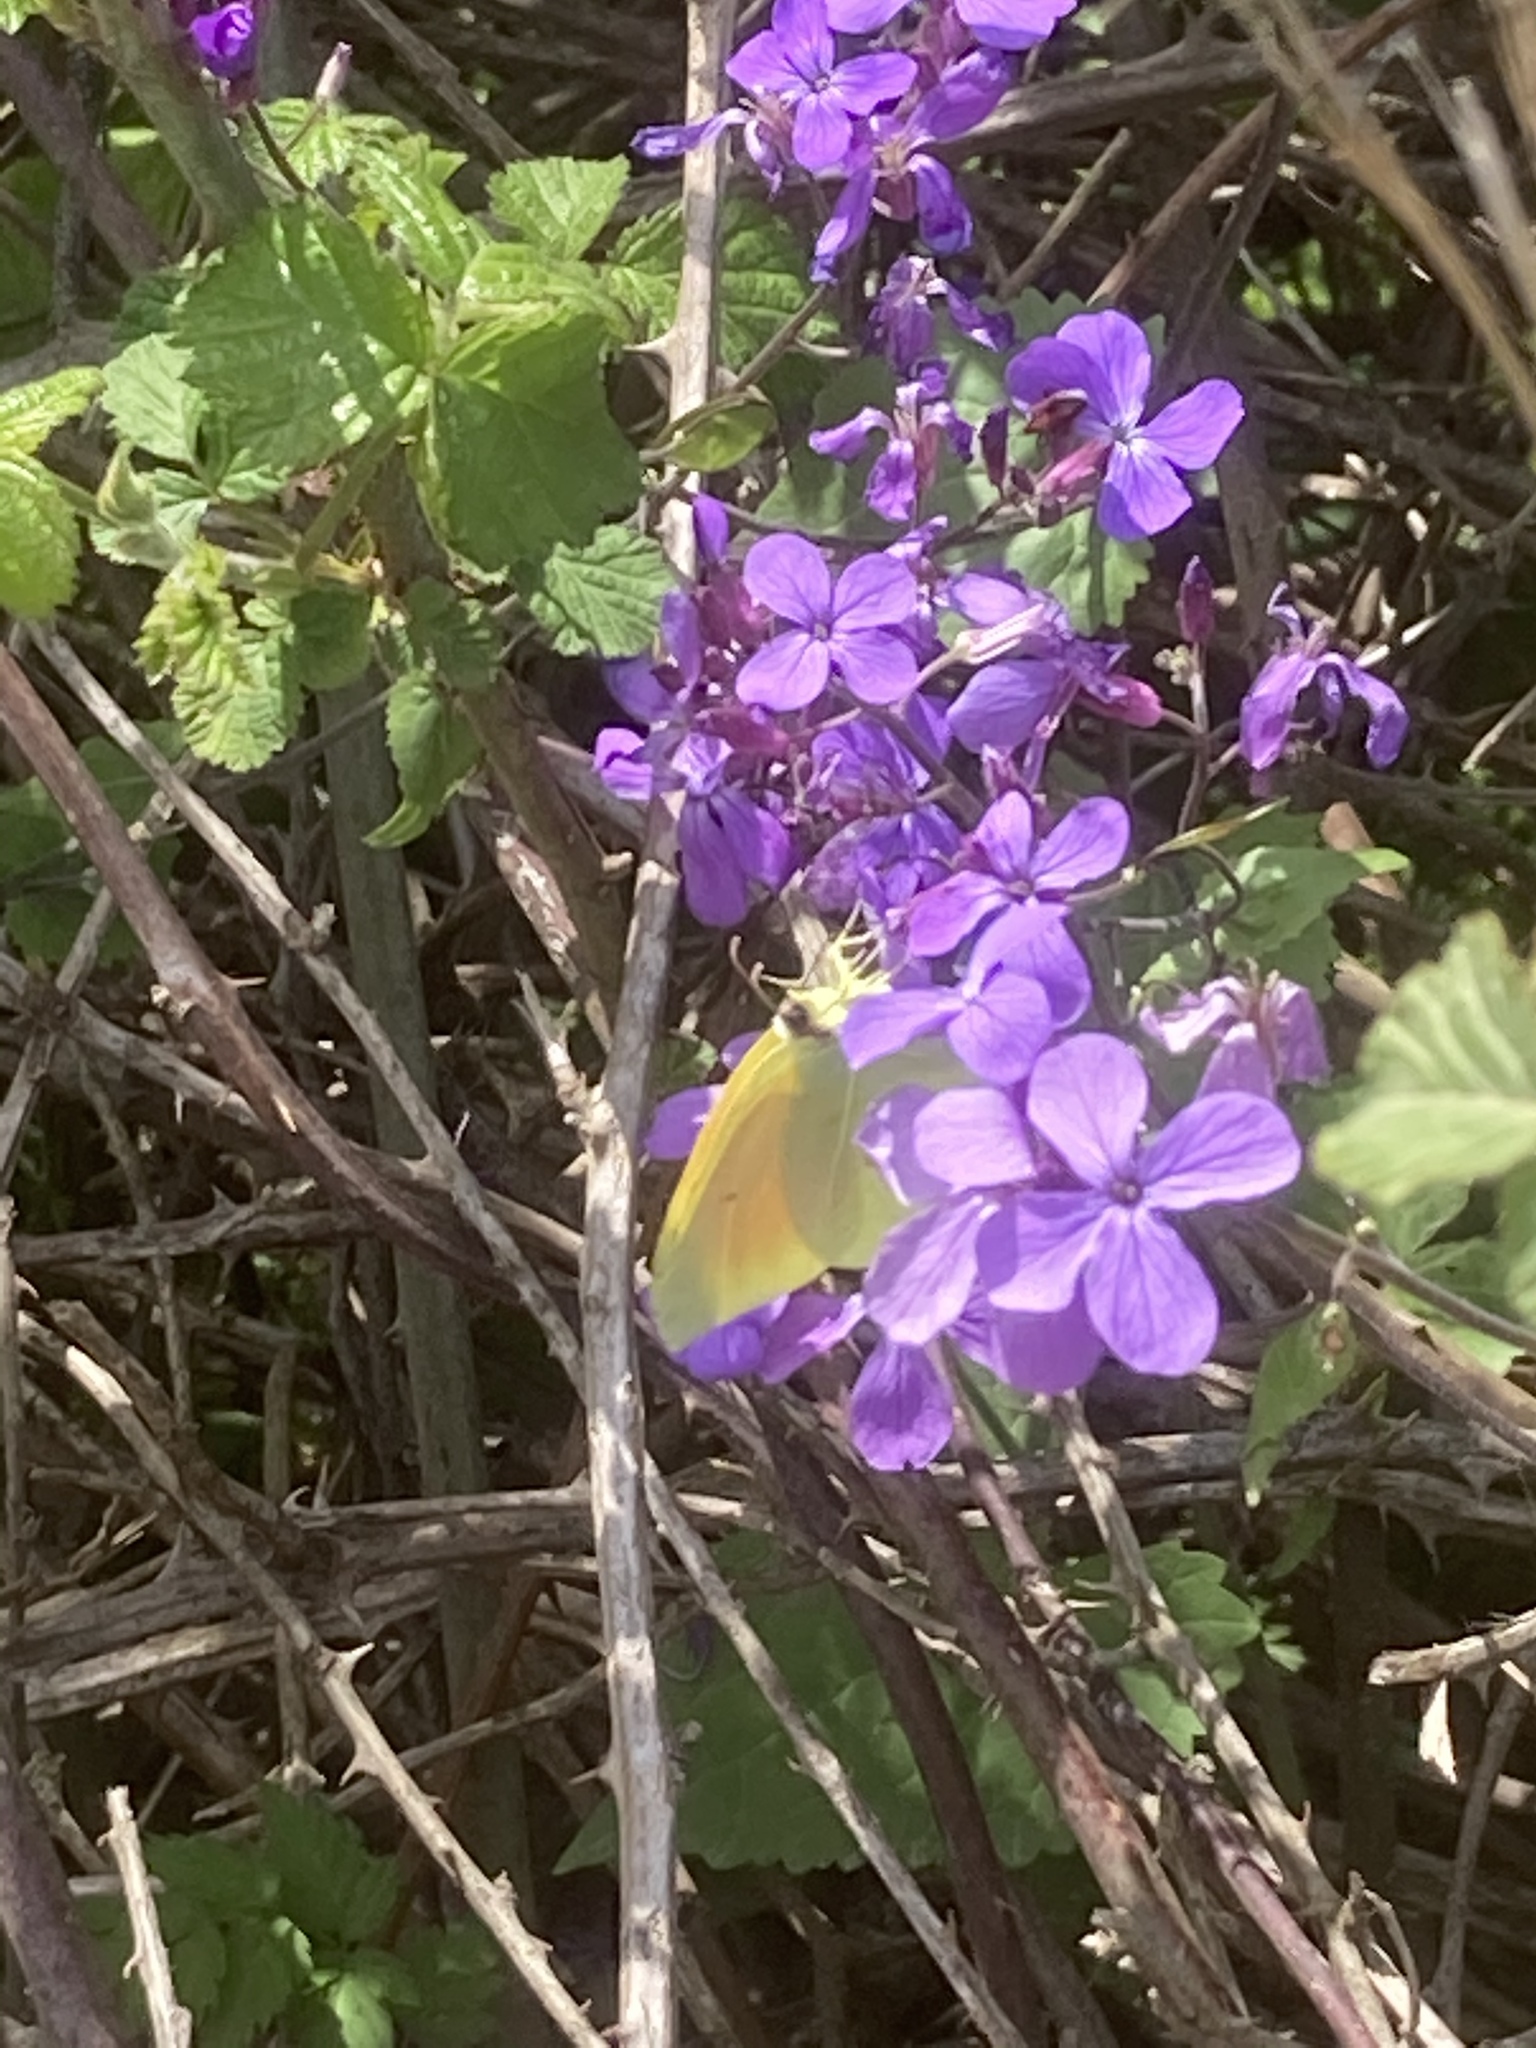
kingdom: Animalia
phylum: Arthropoda
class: Insecta
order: Lepidoptera
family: Pieridae
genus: Gonepteryx
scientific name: Gonepteryx cleopatra
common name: Cleopatra
